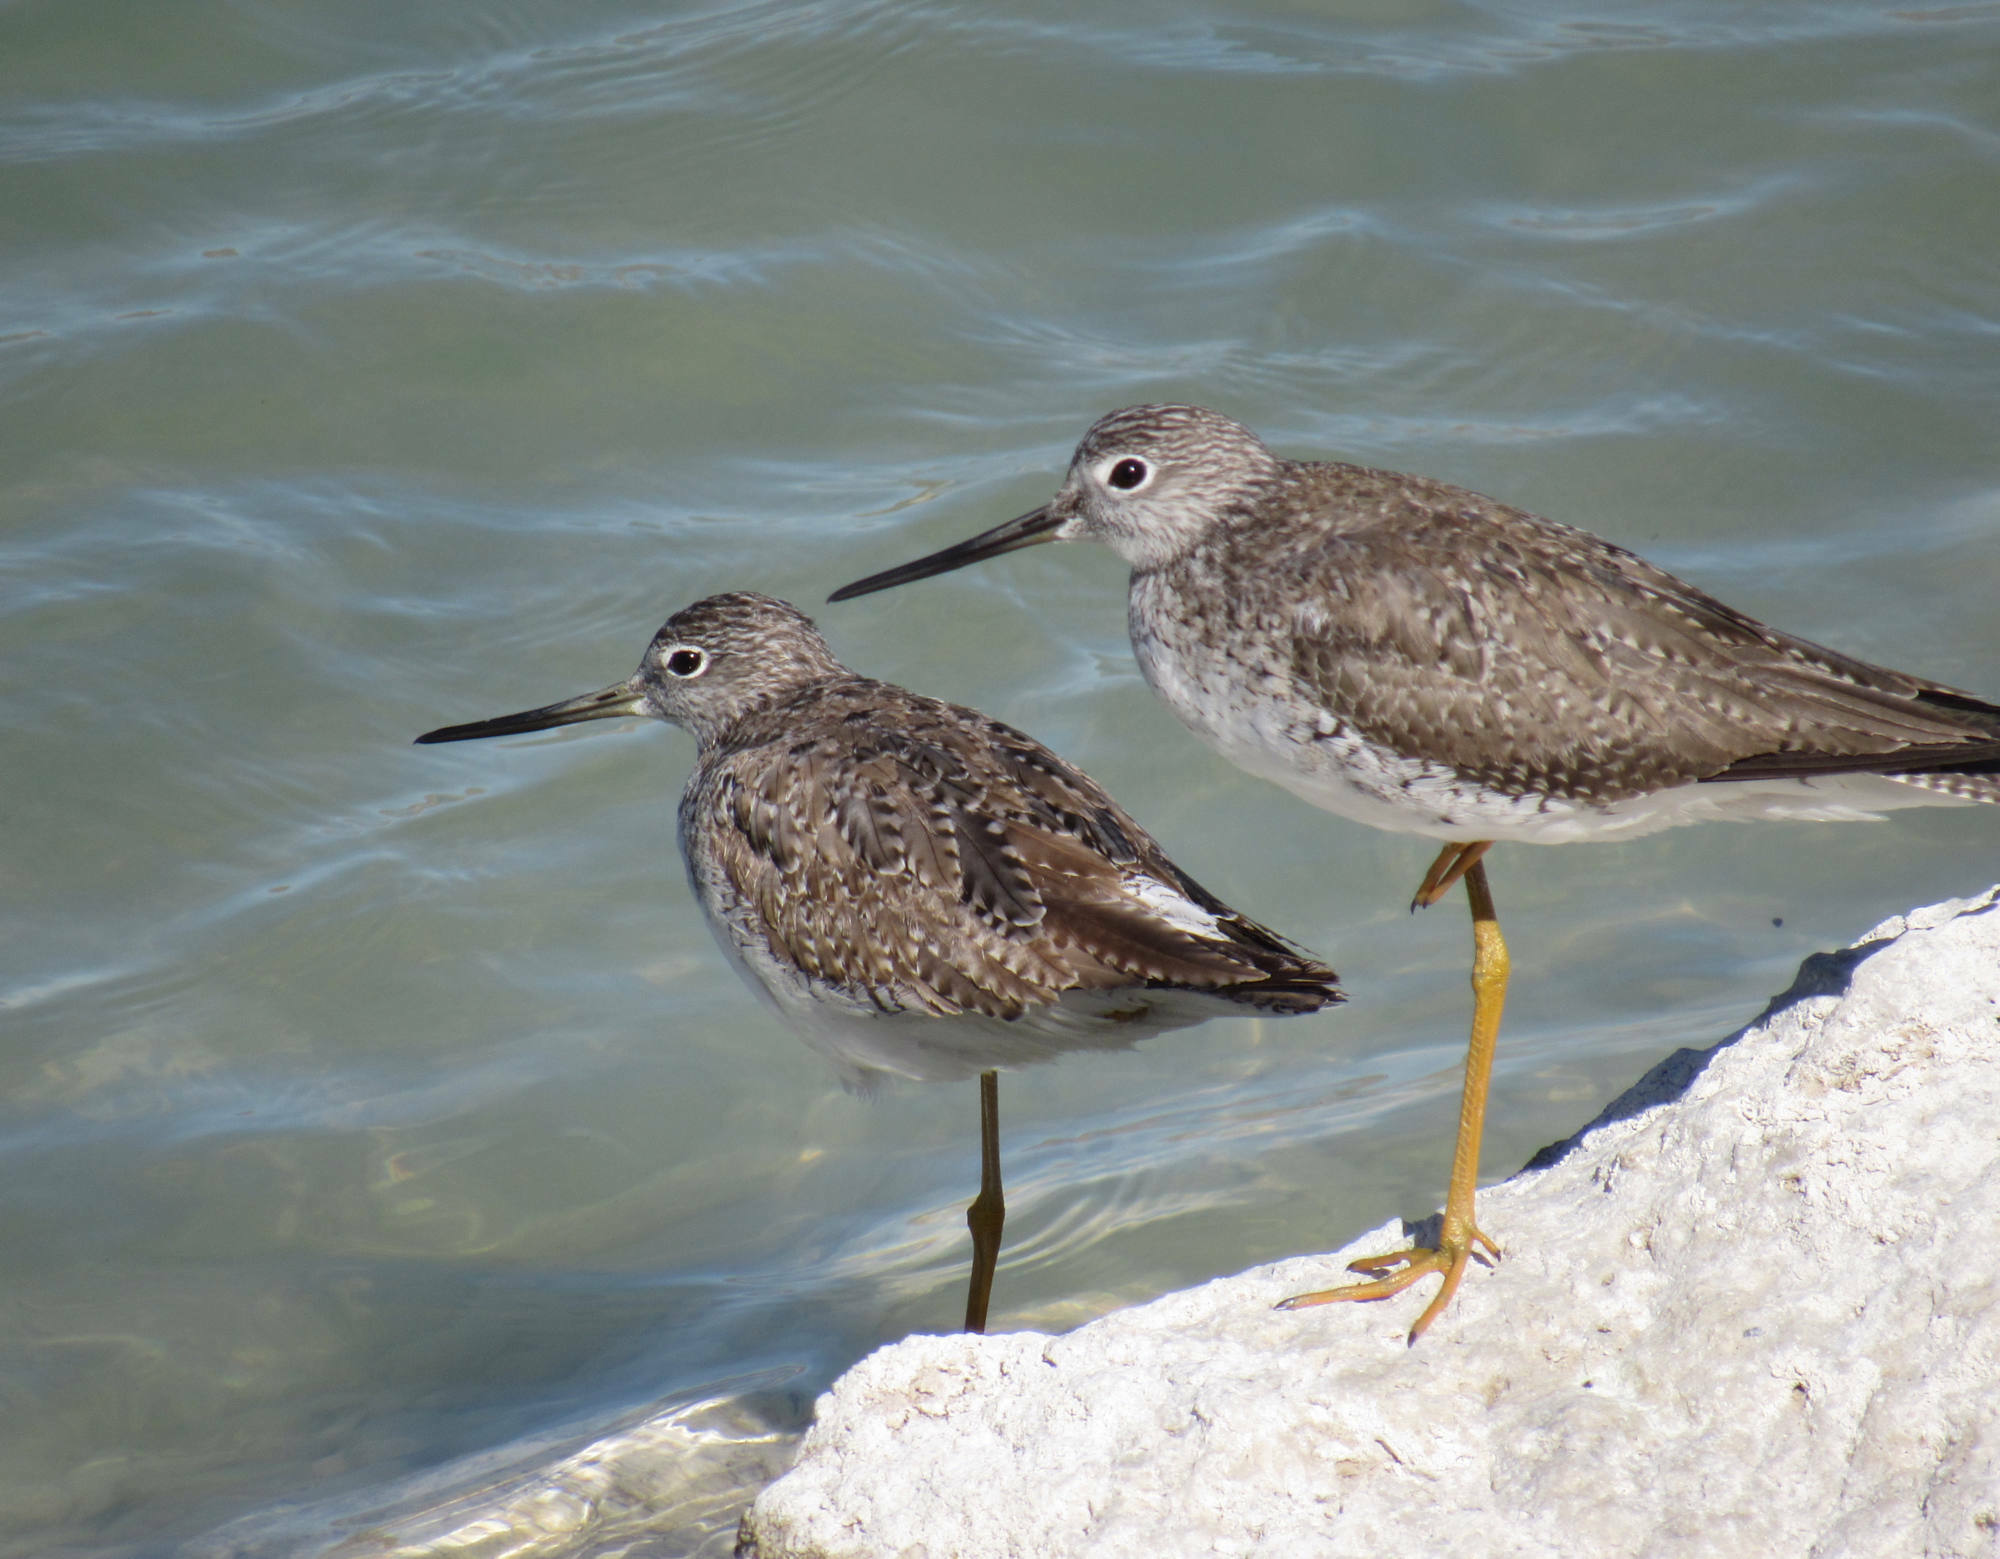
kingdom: Animalia
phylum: Chordata
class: Aves
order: Charadriiformes
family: Scolopacidae
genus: Tringa
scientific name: Tringa melanoleuca
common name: Greater yellowlegs
